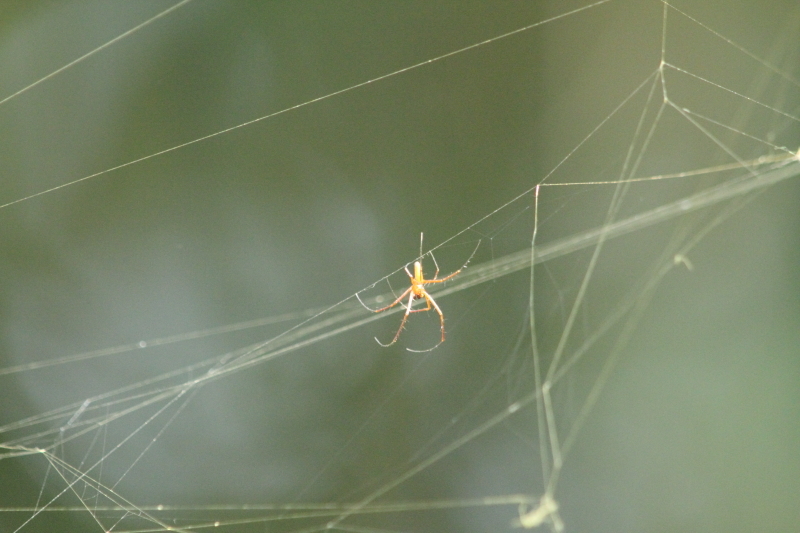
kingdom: Animalia
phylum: Arthropoda
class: Arachnida
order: Araneae
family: Araneidae
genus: Nephila
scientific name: Nephila pilipes
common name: Giant golden orb weaver
